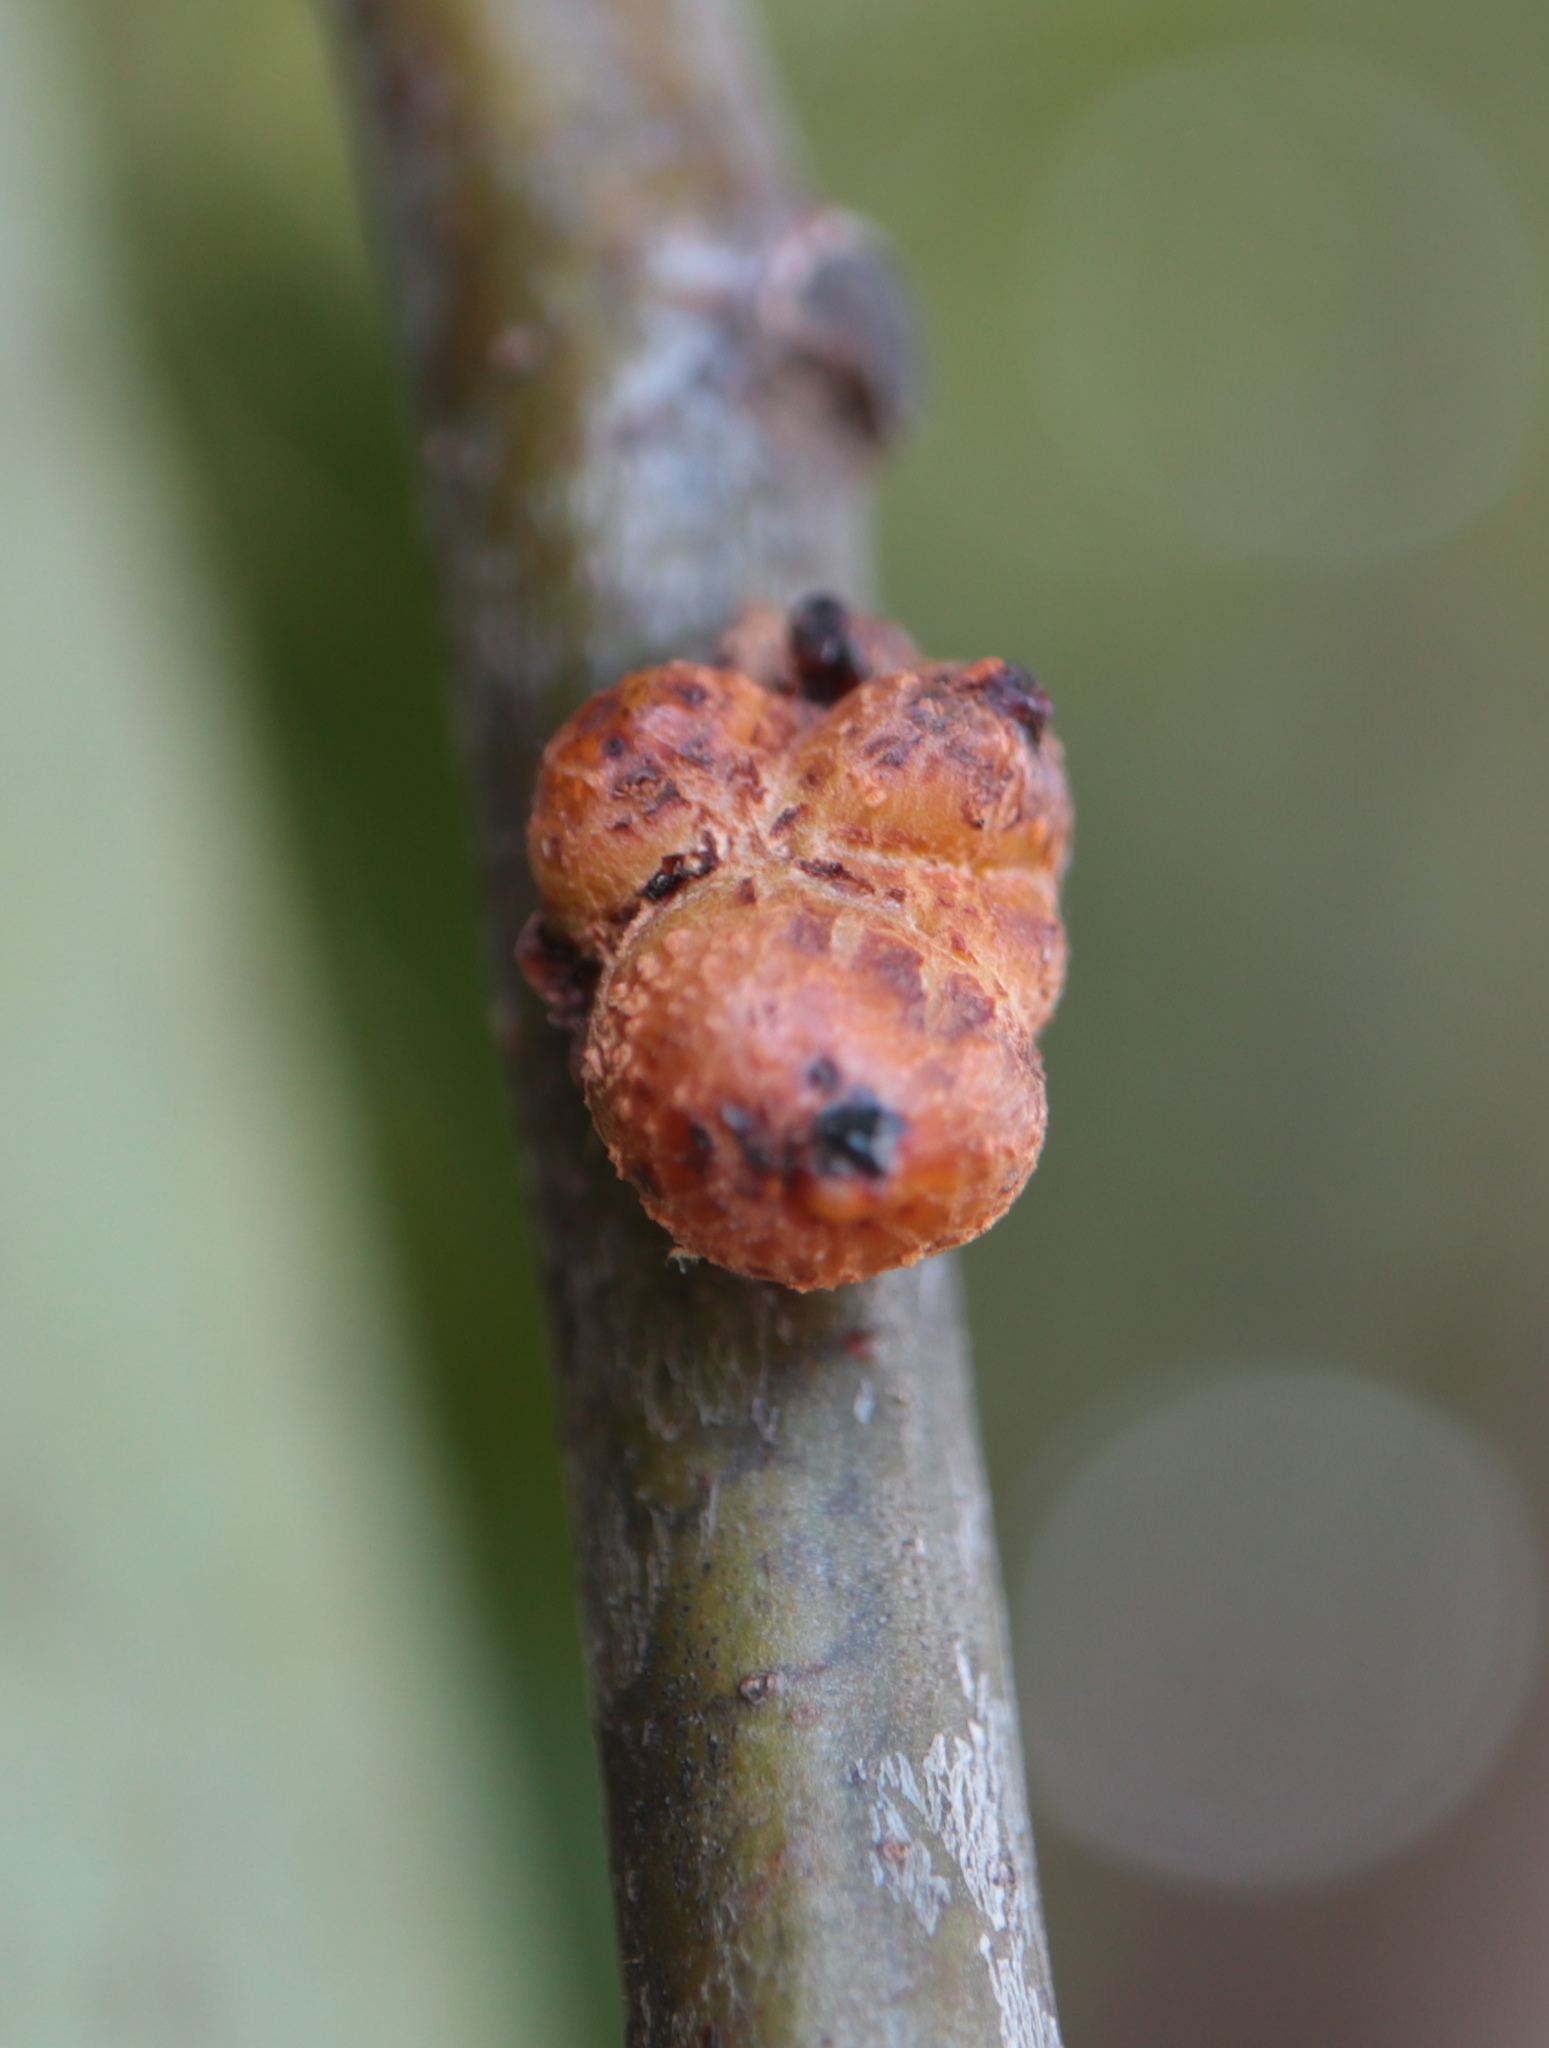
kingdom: Animalia
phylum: Arthropoda
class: Insecta
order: Hymenoptera
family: Cynipidae
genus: Synergus
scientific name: Synergus lignicola
